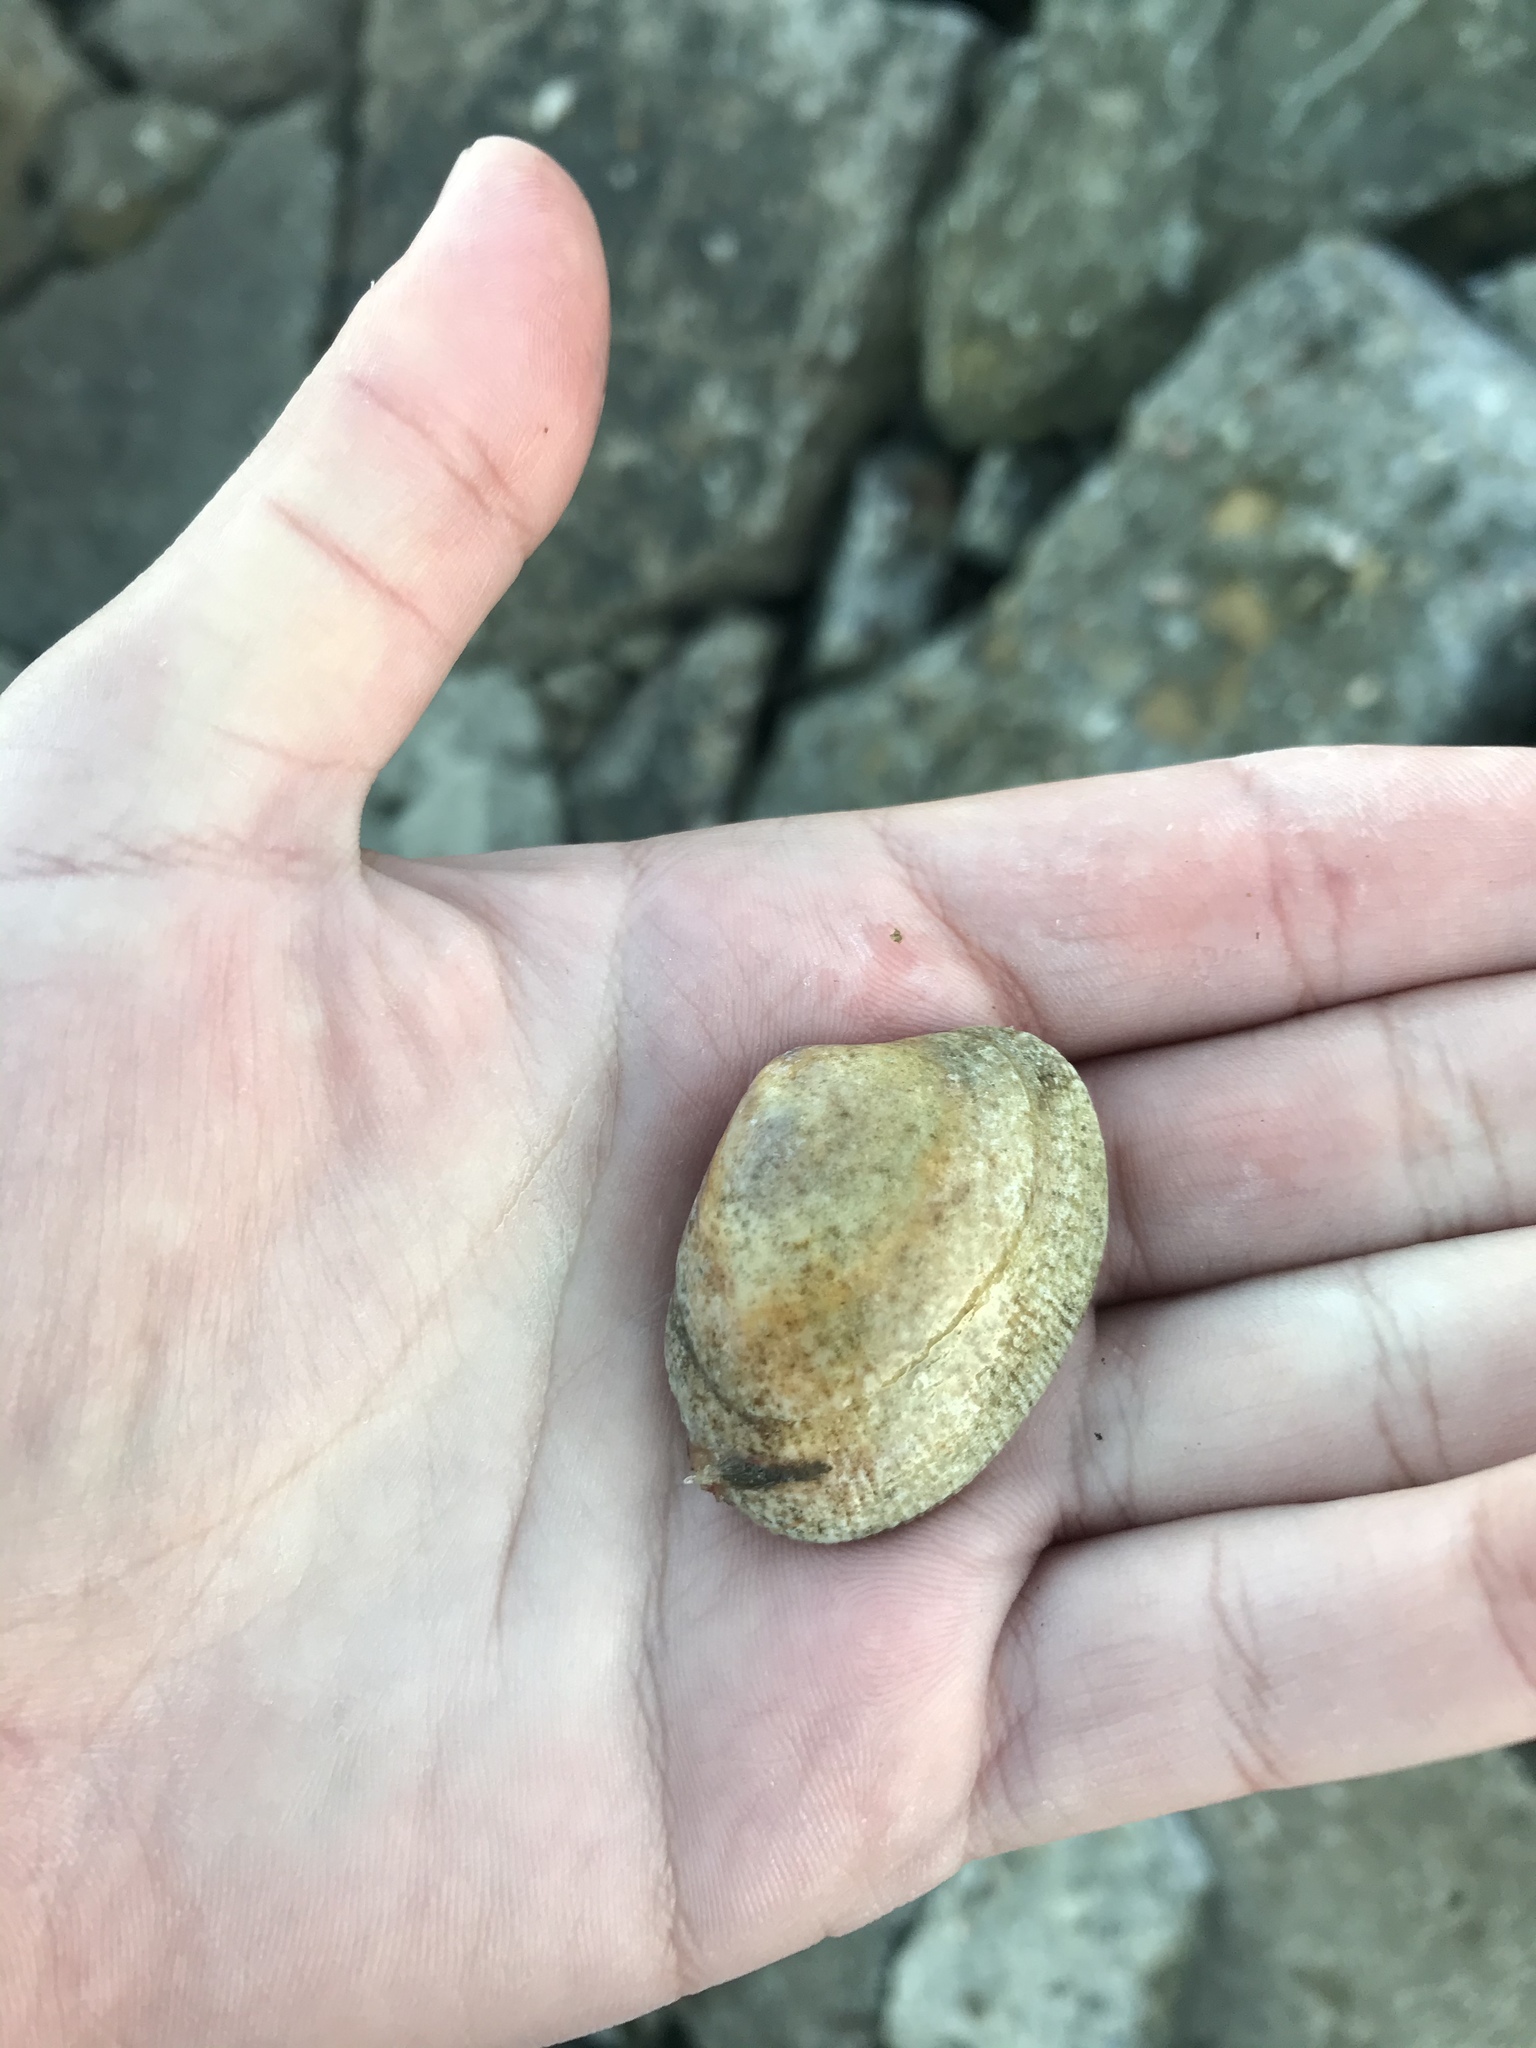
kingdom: Animalia
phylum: Mollusca
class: Bivalvia
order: Venerida
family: Veneridae
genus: Ruditapes
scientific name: Ruditapes philippinarum
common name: Manila clam
